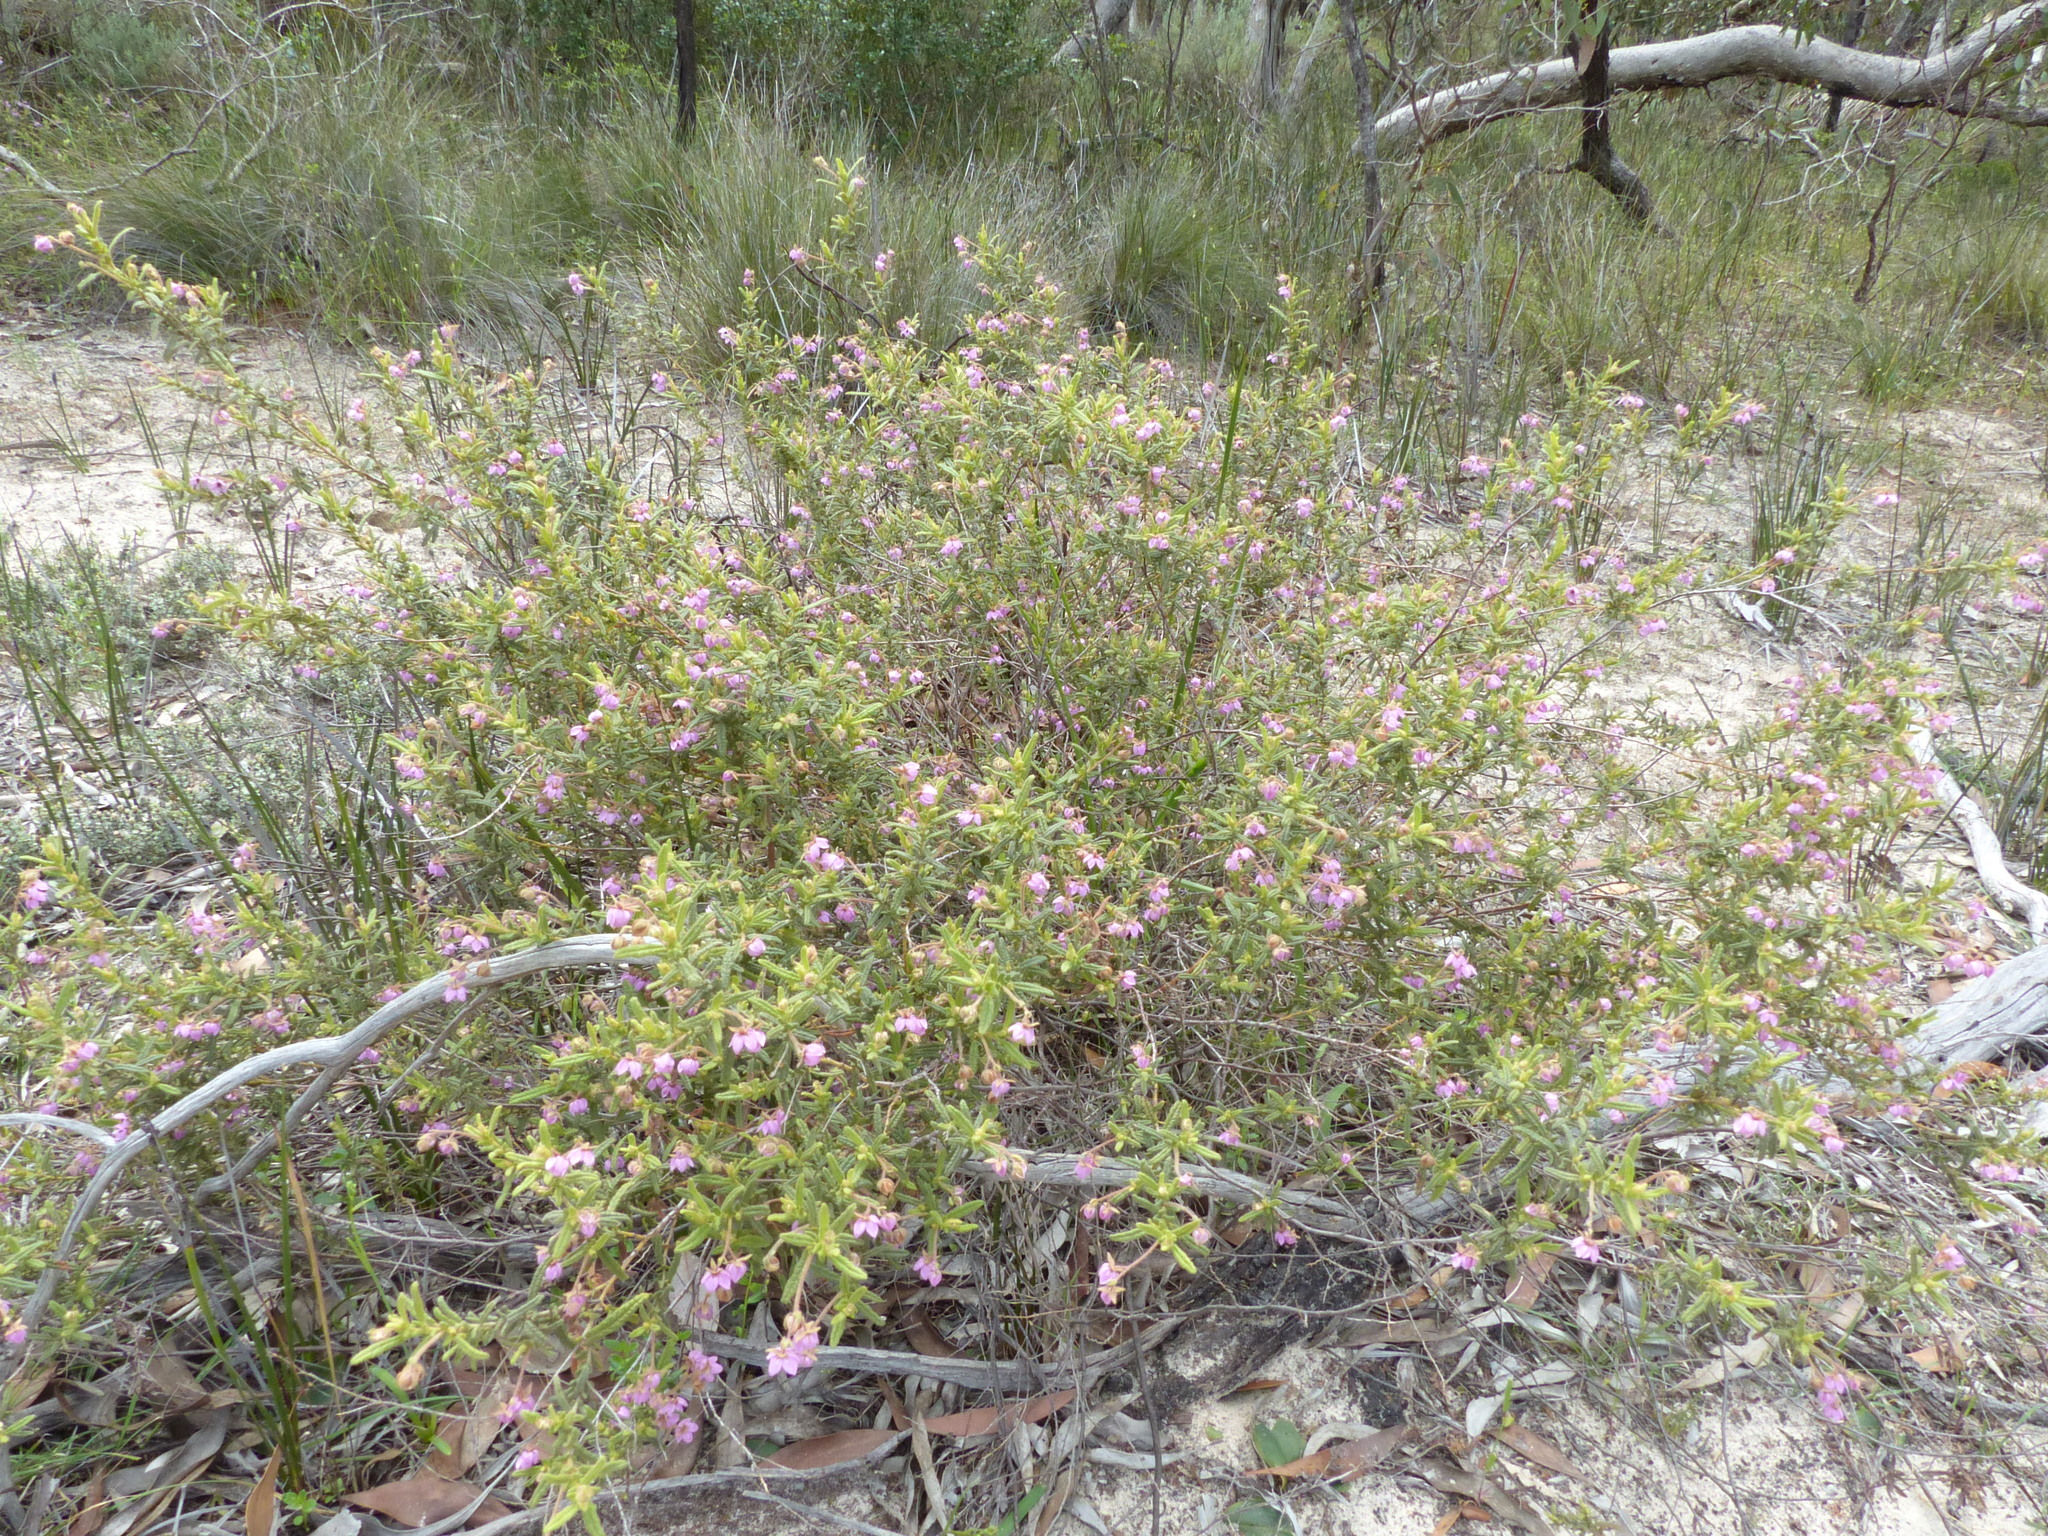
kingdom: Plantae
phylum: Tracheophyta
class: Magnoliopsida
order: Malvales
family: Malvaceae
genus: Thomasia
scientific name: Thomasia petalocalyx
